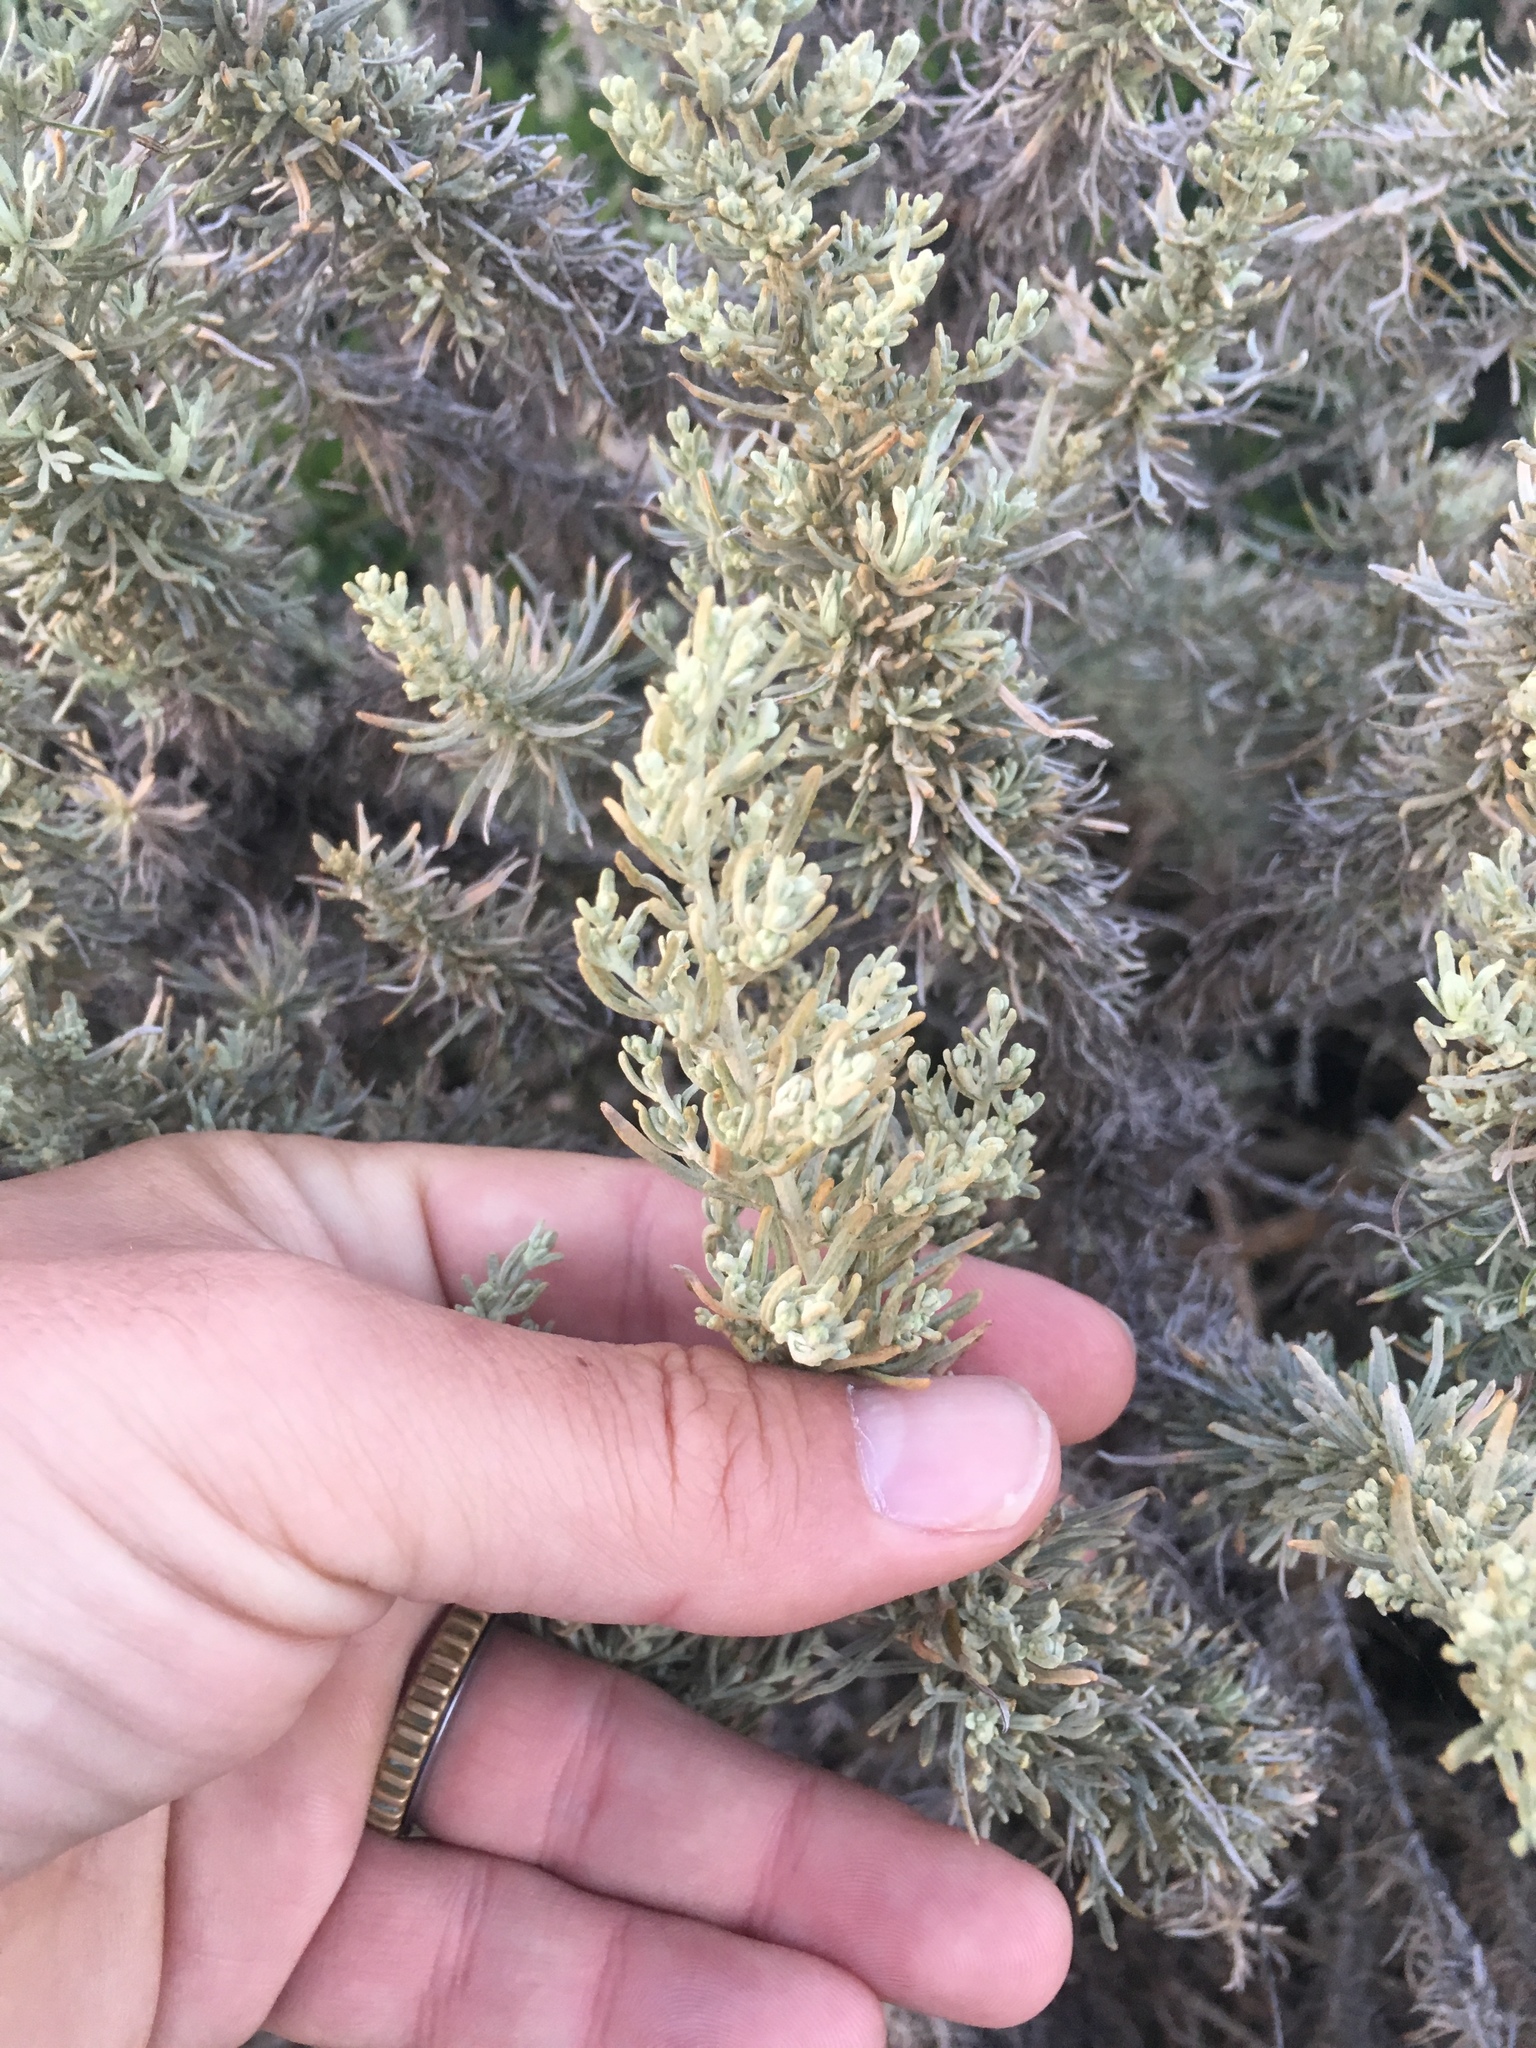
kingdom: Plantae
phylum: Tracheophyta
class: Magnoliopsida
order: Asterales
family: Asteraceae
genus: Artemisia
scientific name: Artemisia californica
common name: California sagebrush
